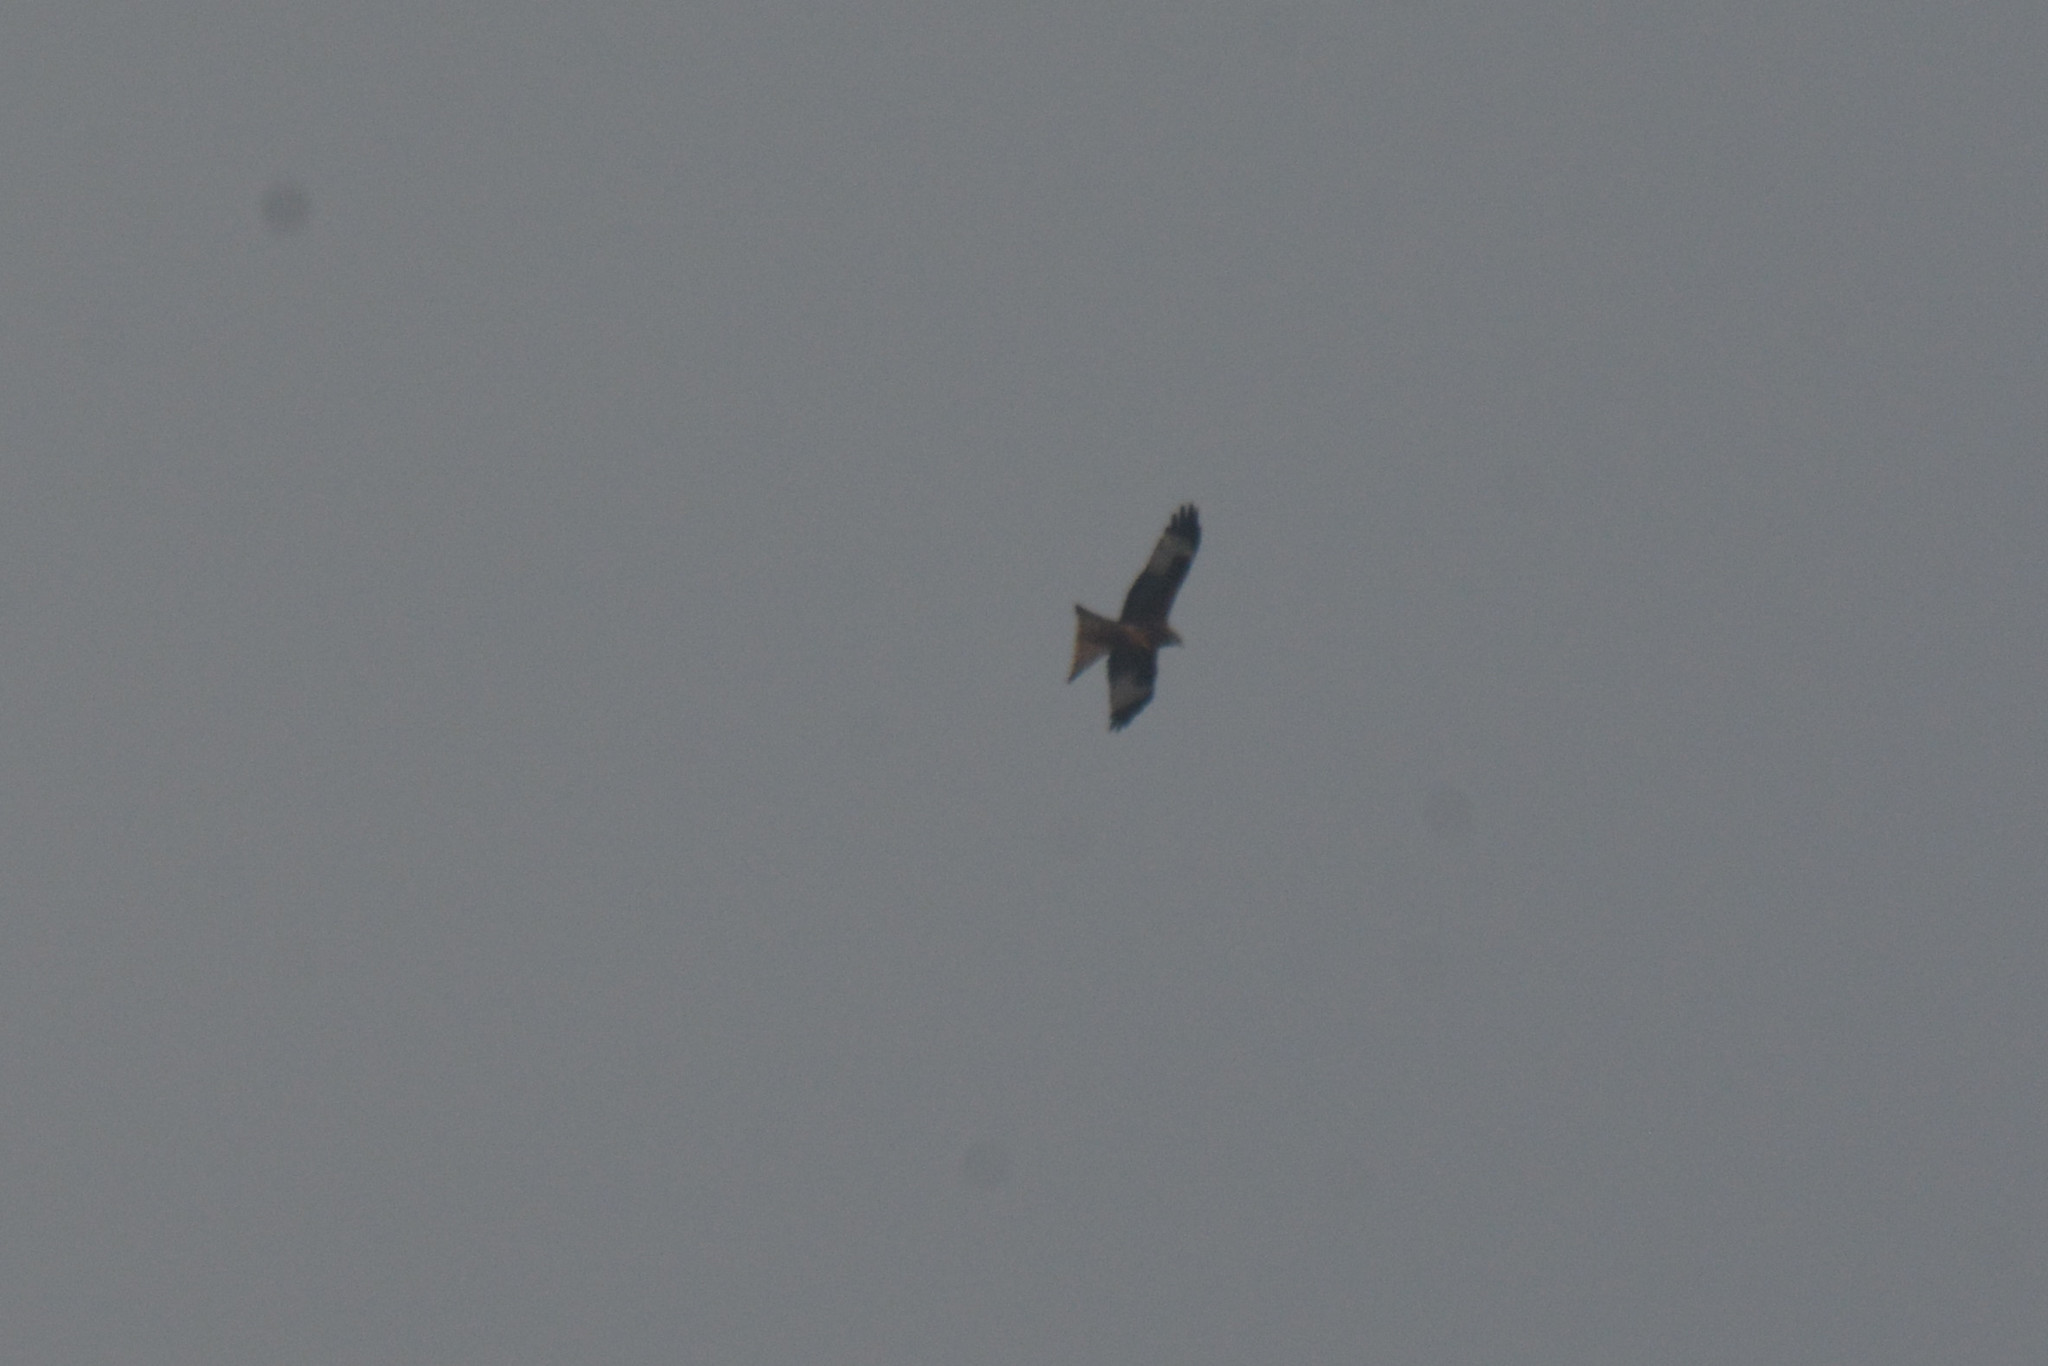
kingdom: Animalia
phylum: Chordata
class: Aves
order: Accipitriformes
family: Accipitridae
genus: Milvus
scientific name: Milvus milvus
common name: Red kite
